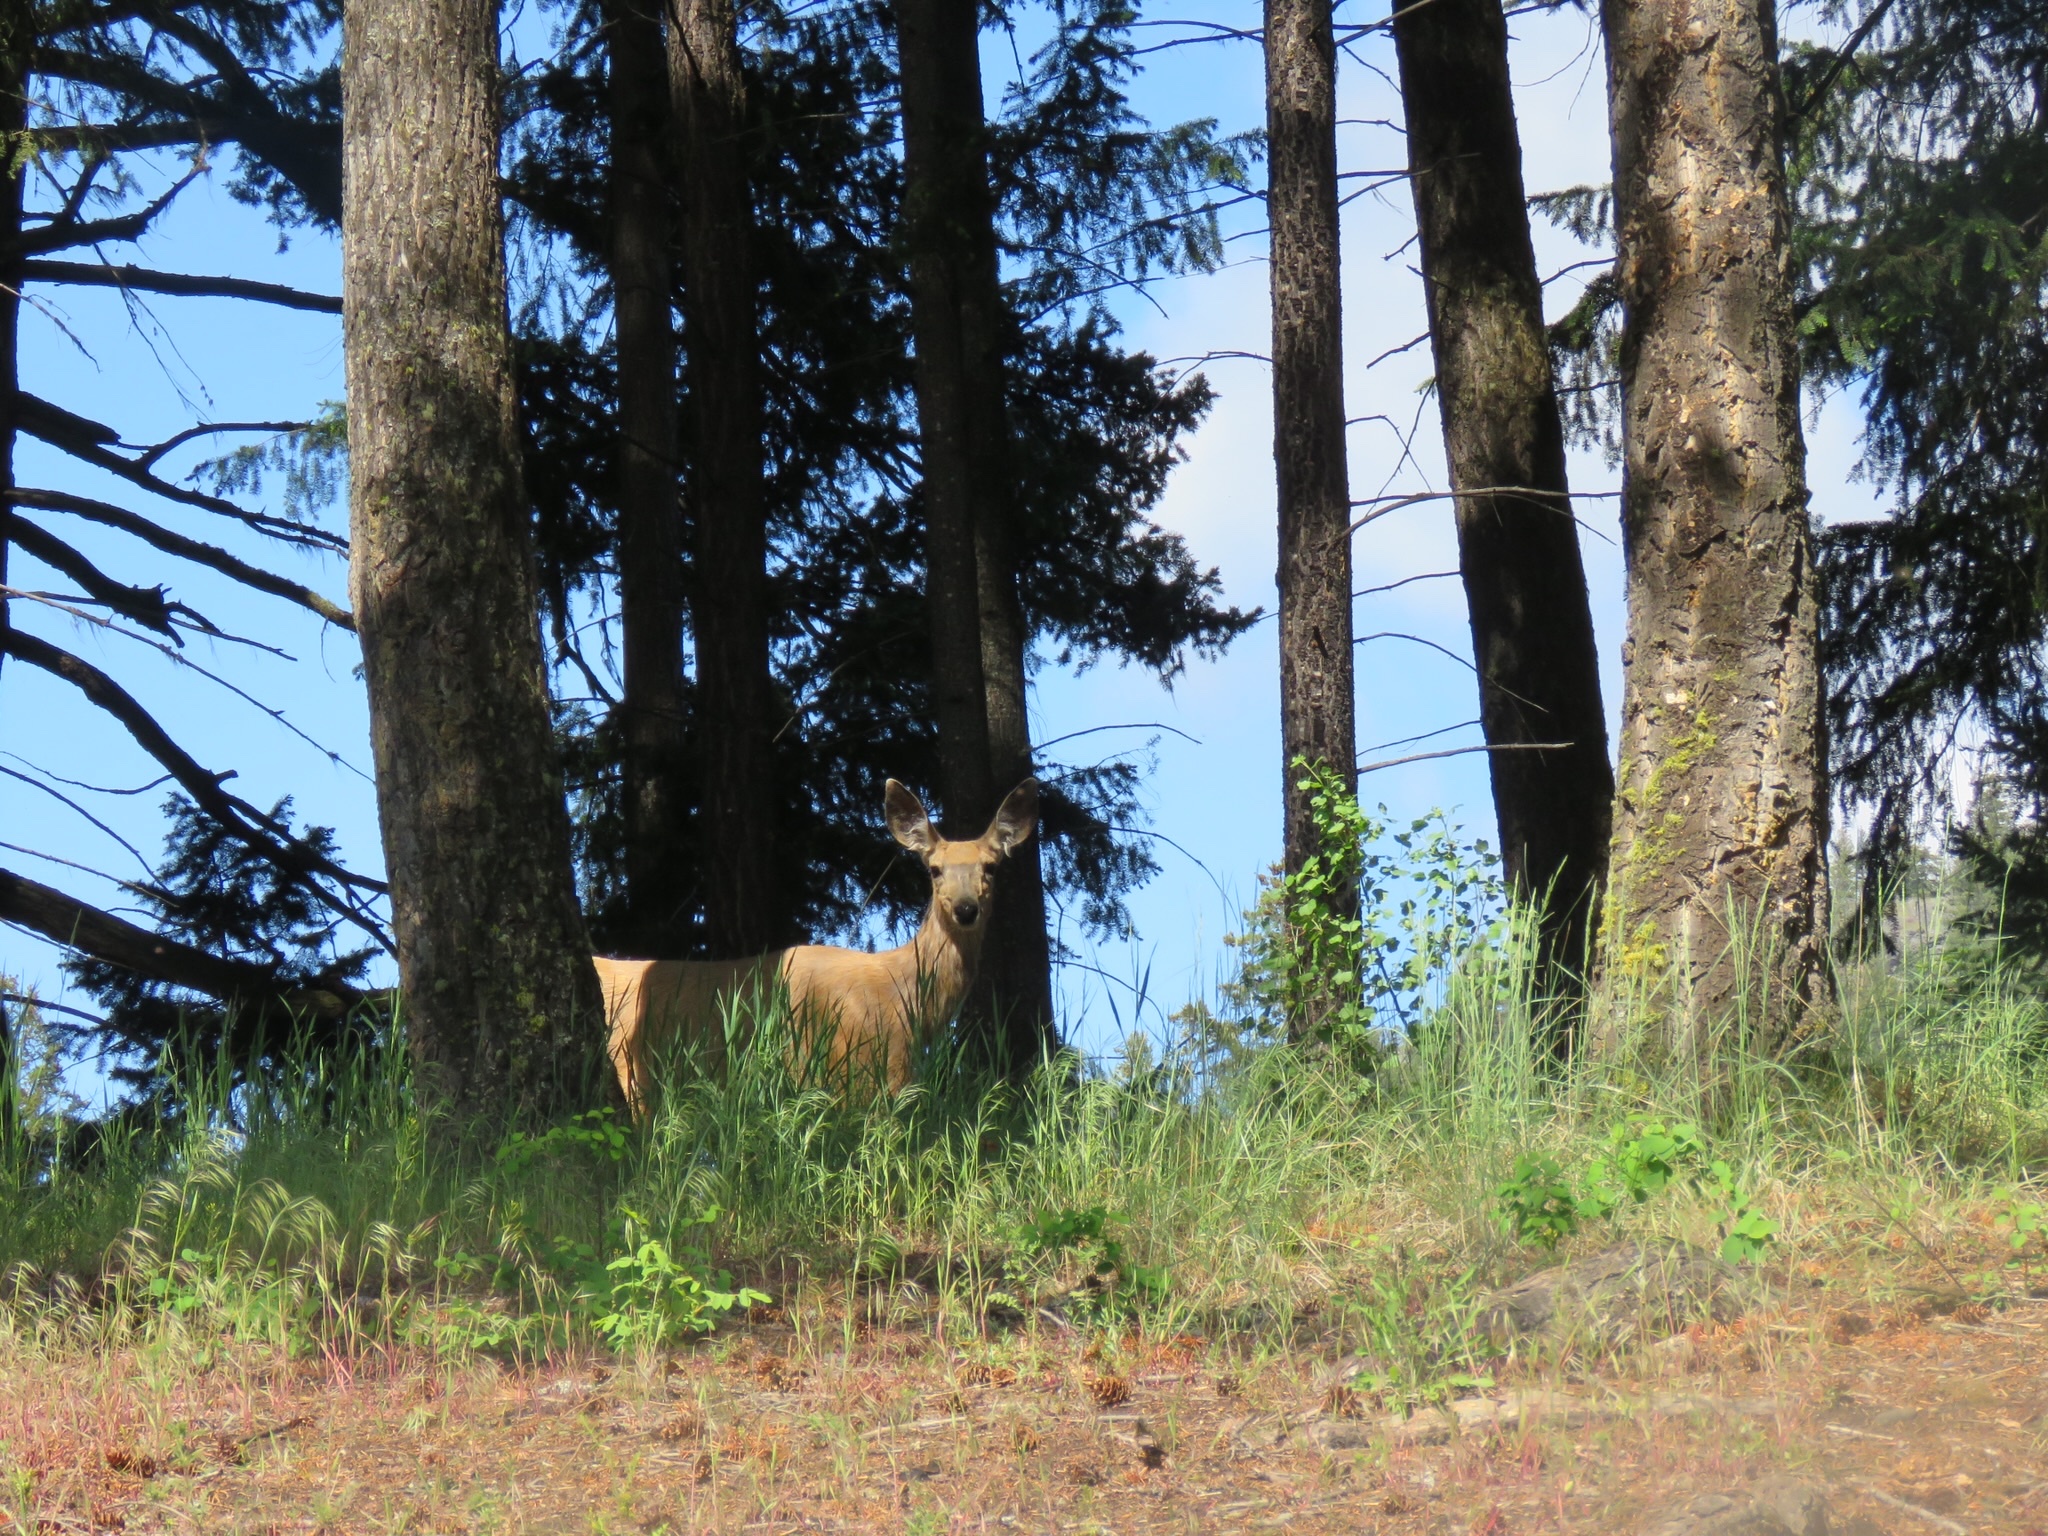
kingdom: Animalia
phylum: Chordata
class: Mammalia
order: Artiodactyla
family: Cervidae
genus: Odocoileus
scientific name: Odocoileus hemionus
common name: Mule deer
